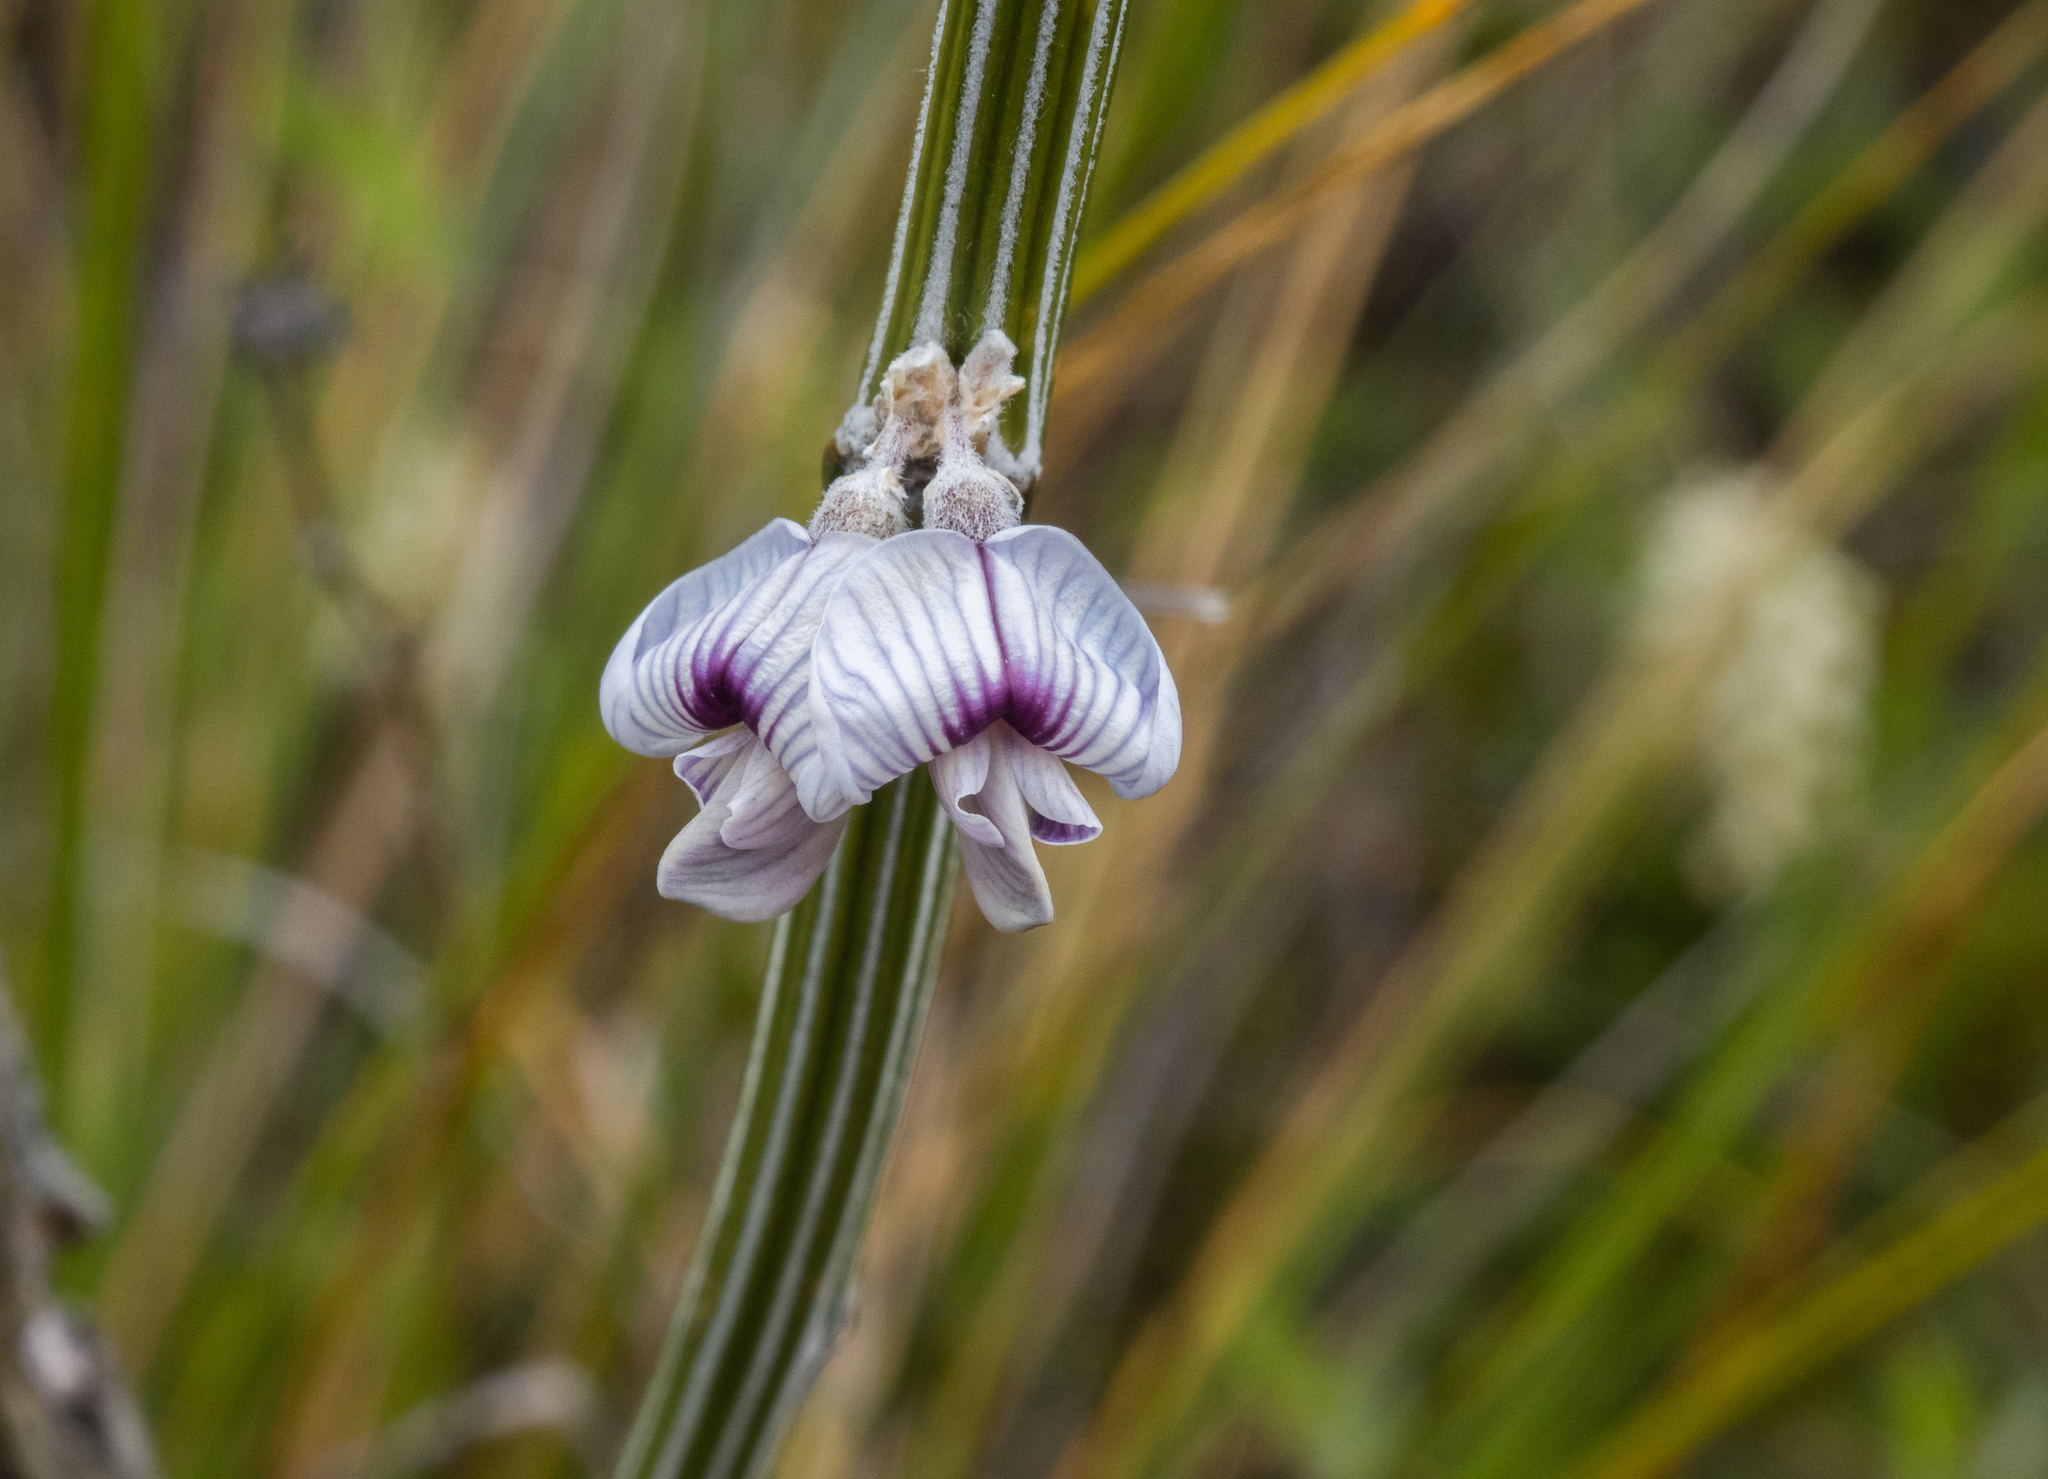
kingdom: Plantae
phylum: Tracheophyta
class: Magnoliopsida
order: Fabales
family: Fabaceae
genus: Carmichaelia
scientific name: Carmichaelia crassicaulis
